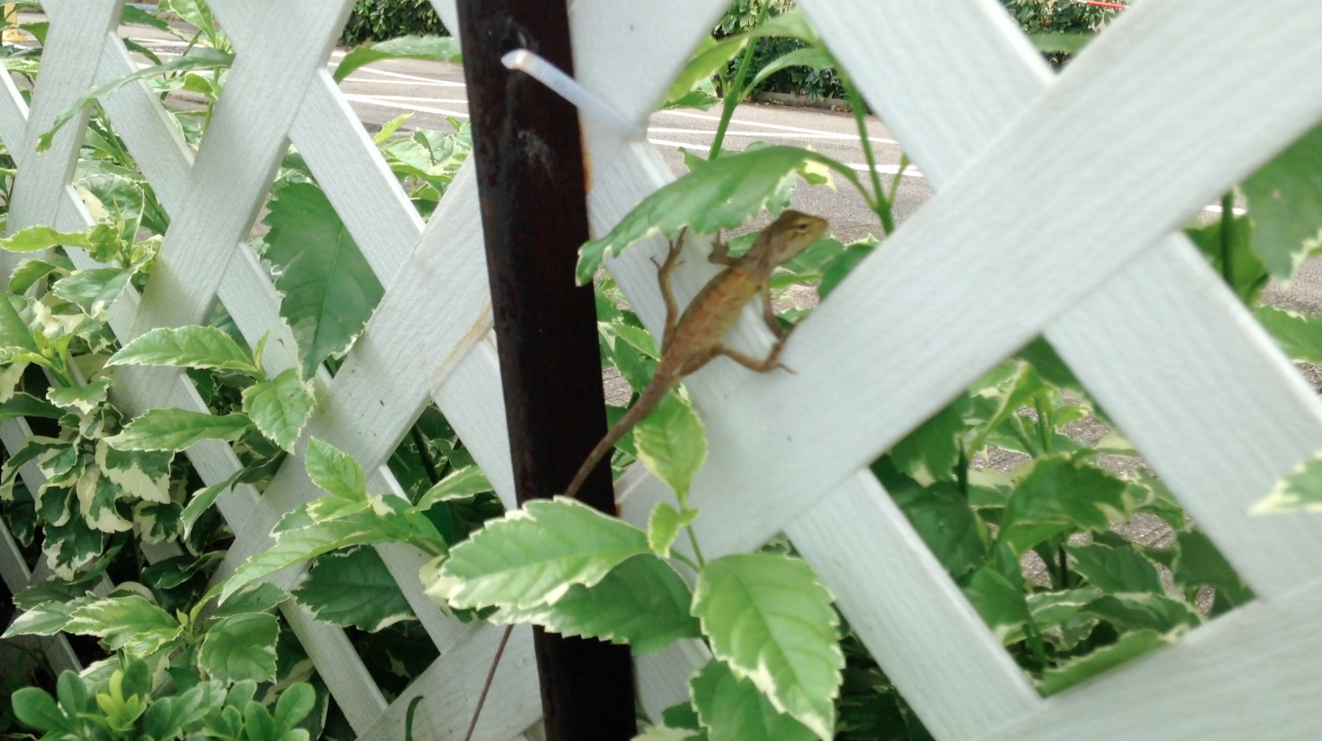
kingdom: Animalia
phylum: Chordata
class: Squamata
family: Agamidae
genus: Calotes
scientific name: Calotes versicolor
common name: Oriental garden lizard
